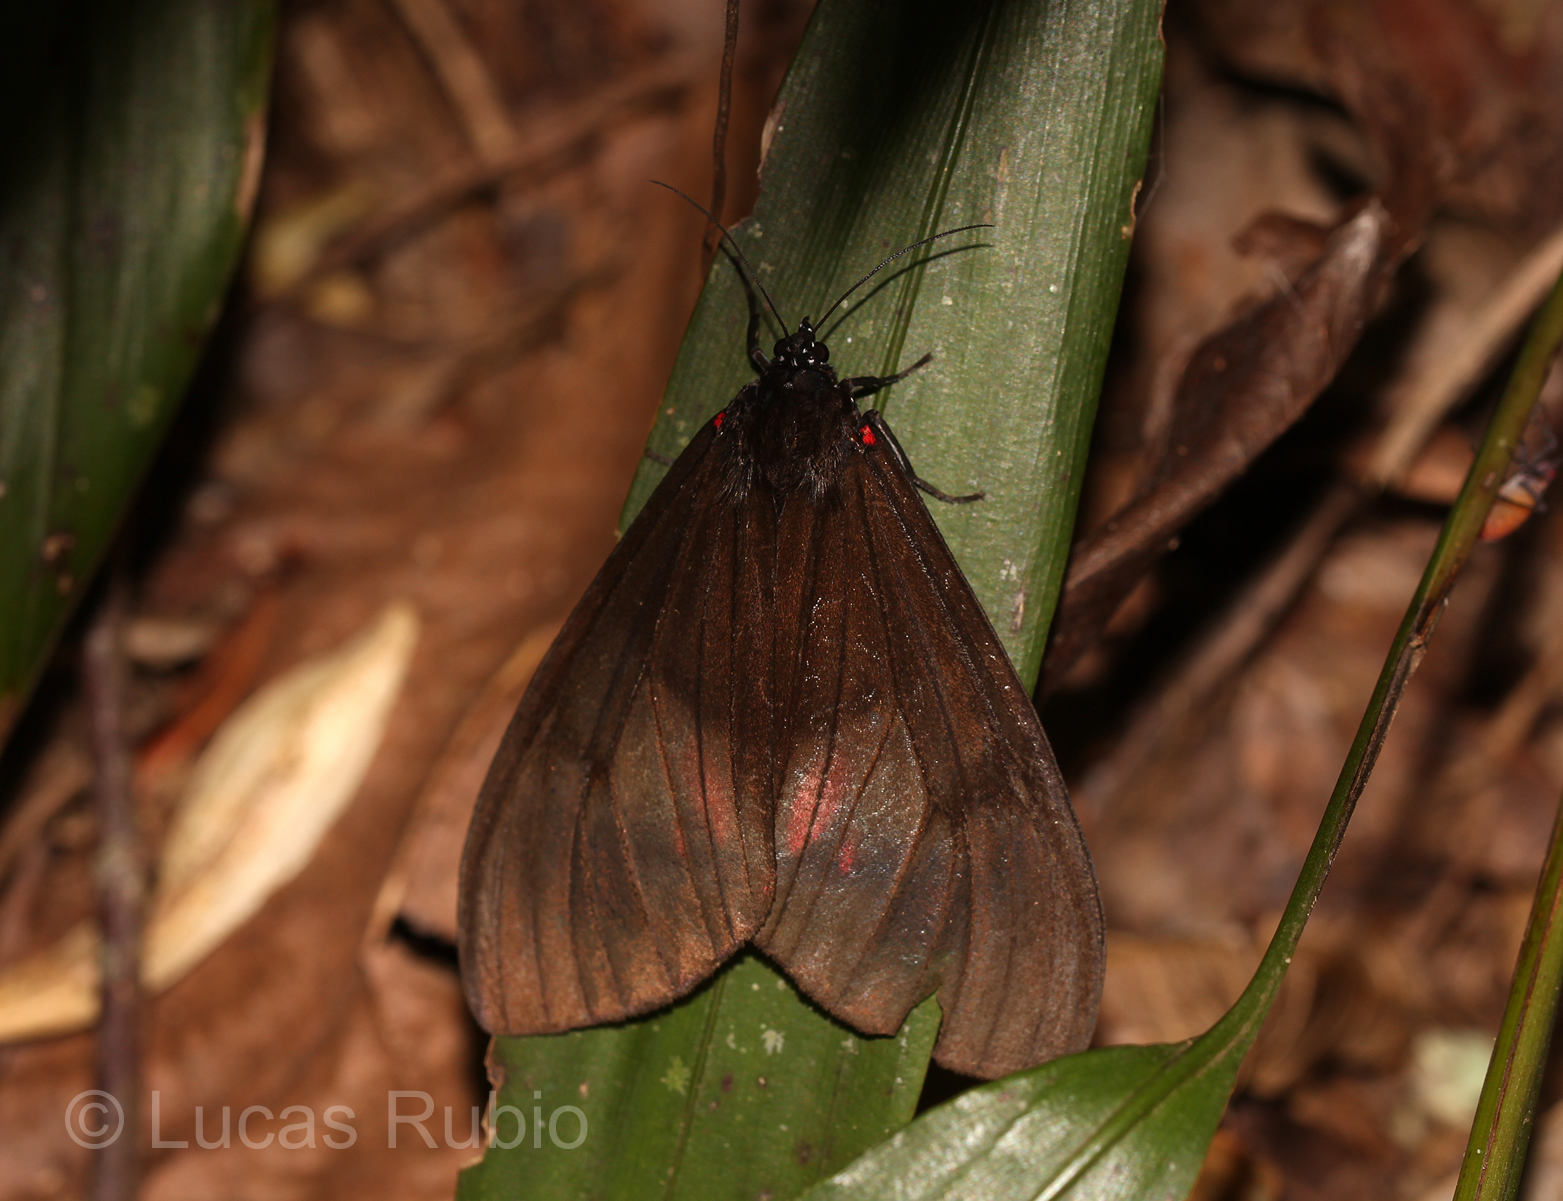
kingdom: Animalia
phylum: Arthropoda
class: Insecta
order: Lepidoptera
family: Erebidae
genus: Dysschema
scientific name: Dysschema tricolora
